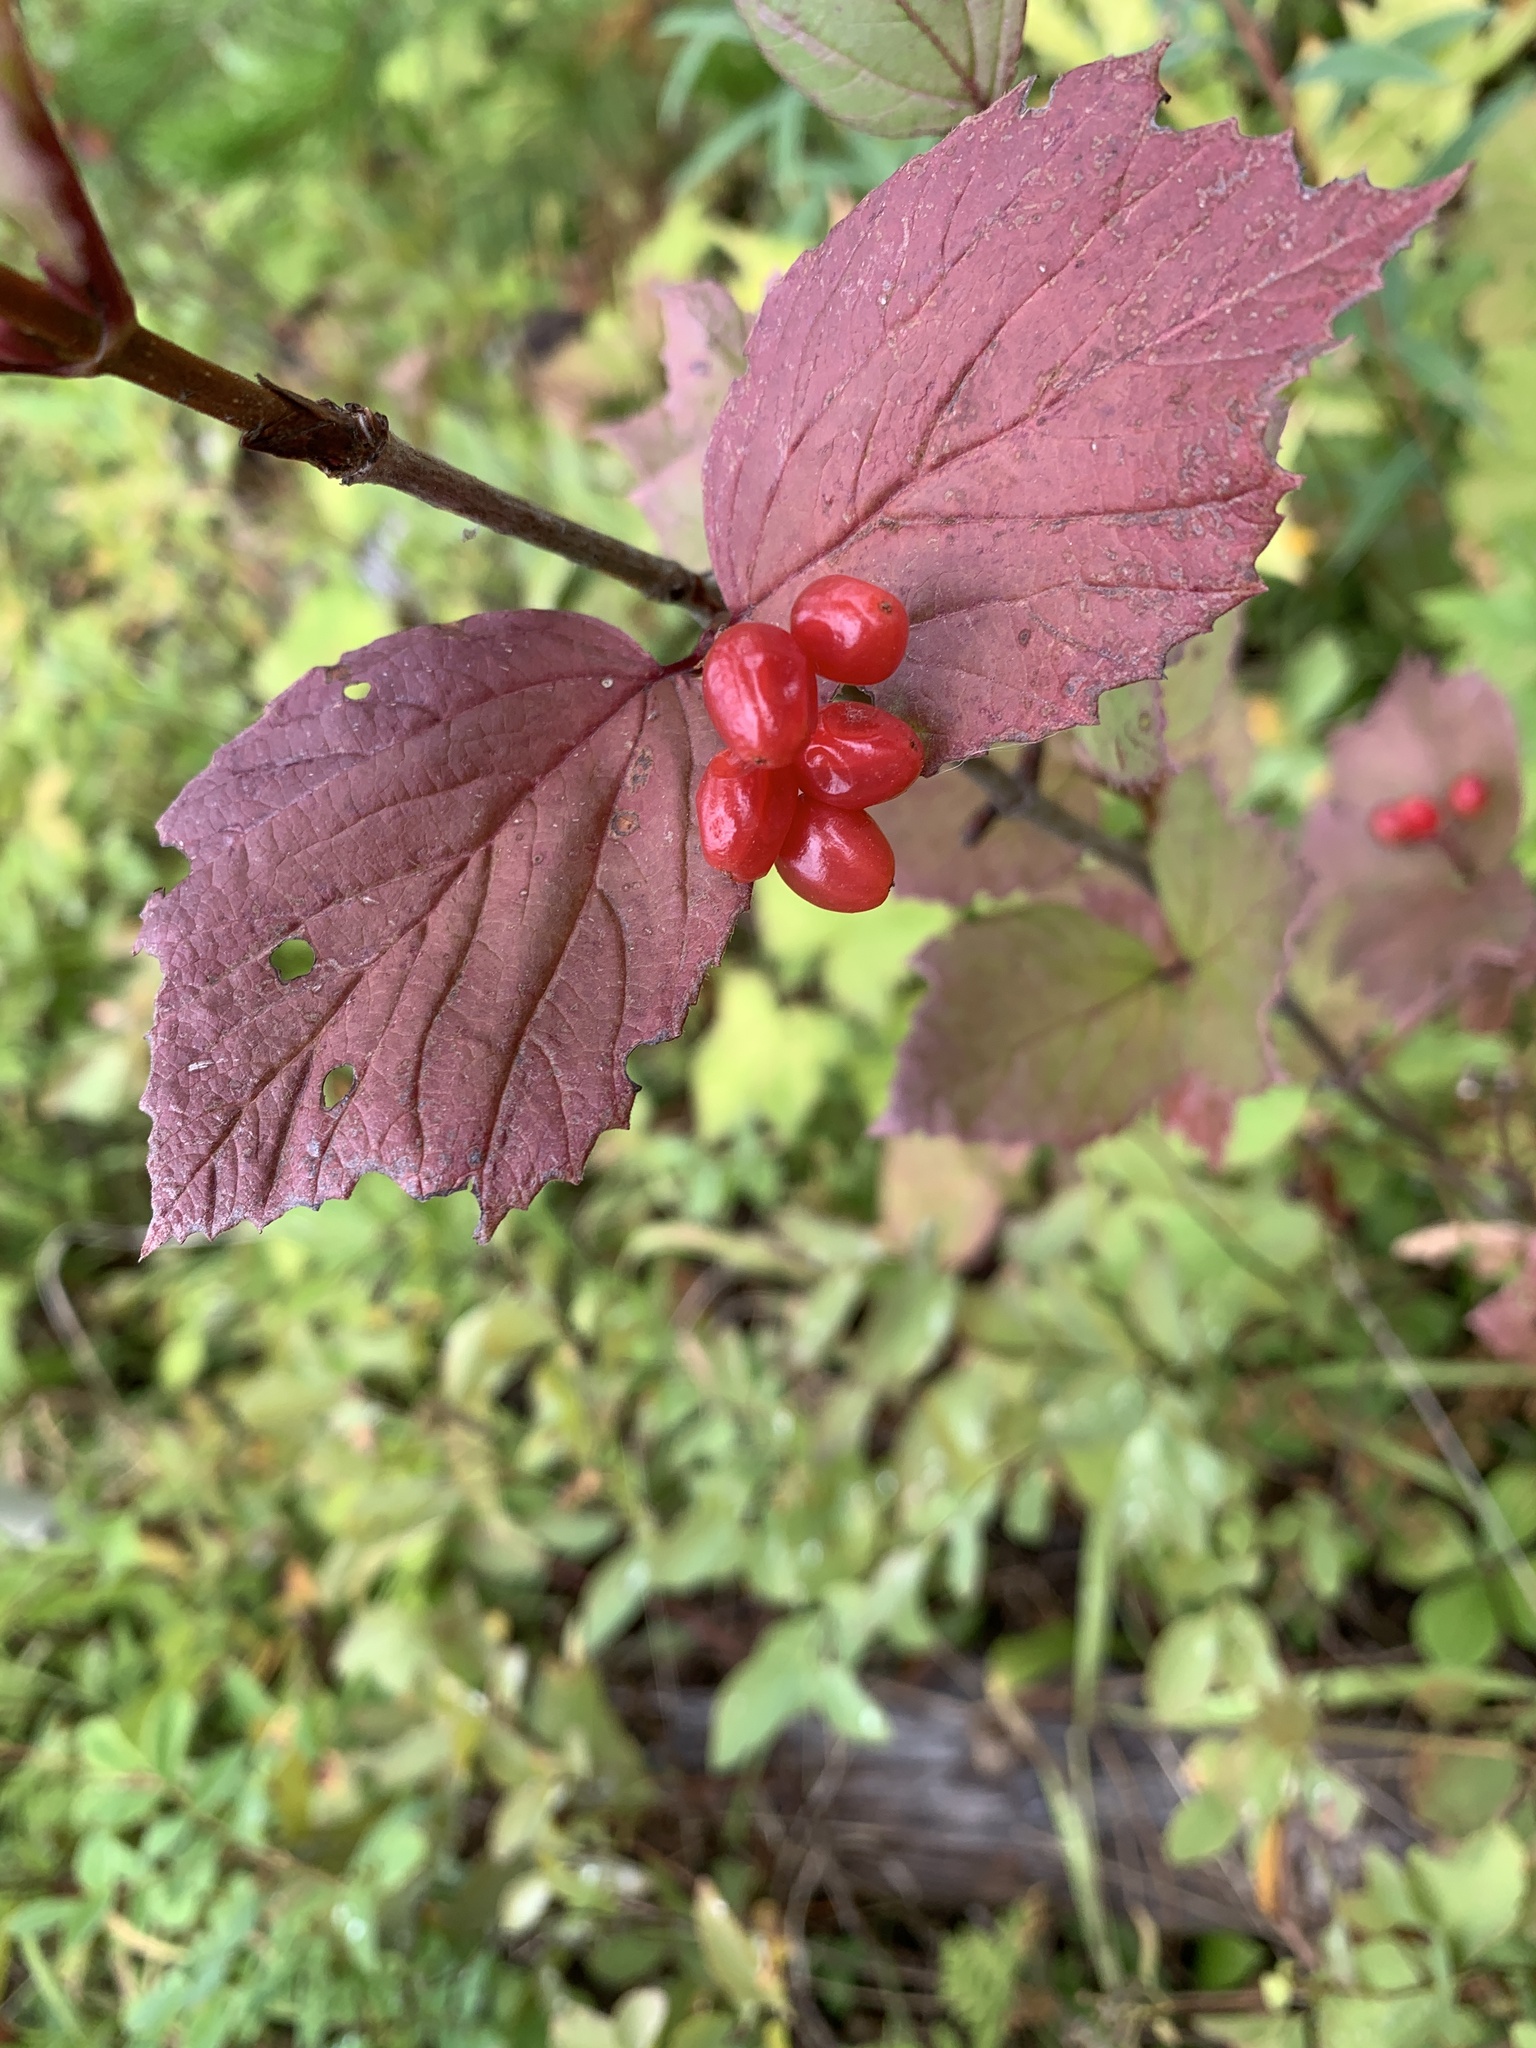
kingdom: Plantae
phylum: Tracheophyta
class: Magnoliopsida
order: Dipsacales
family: Viburnaceae
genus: Viburnum
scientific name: Viburnum edule
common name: Mooseberry
